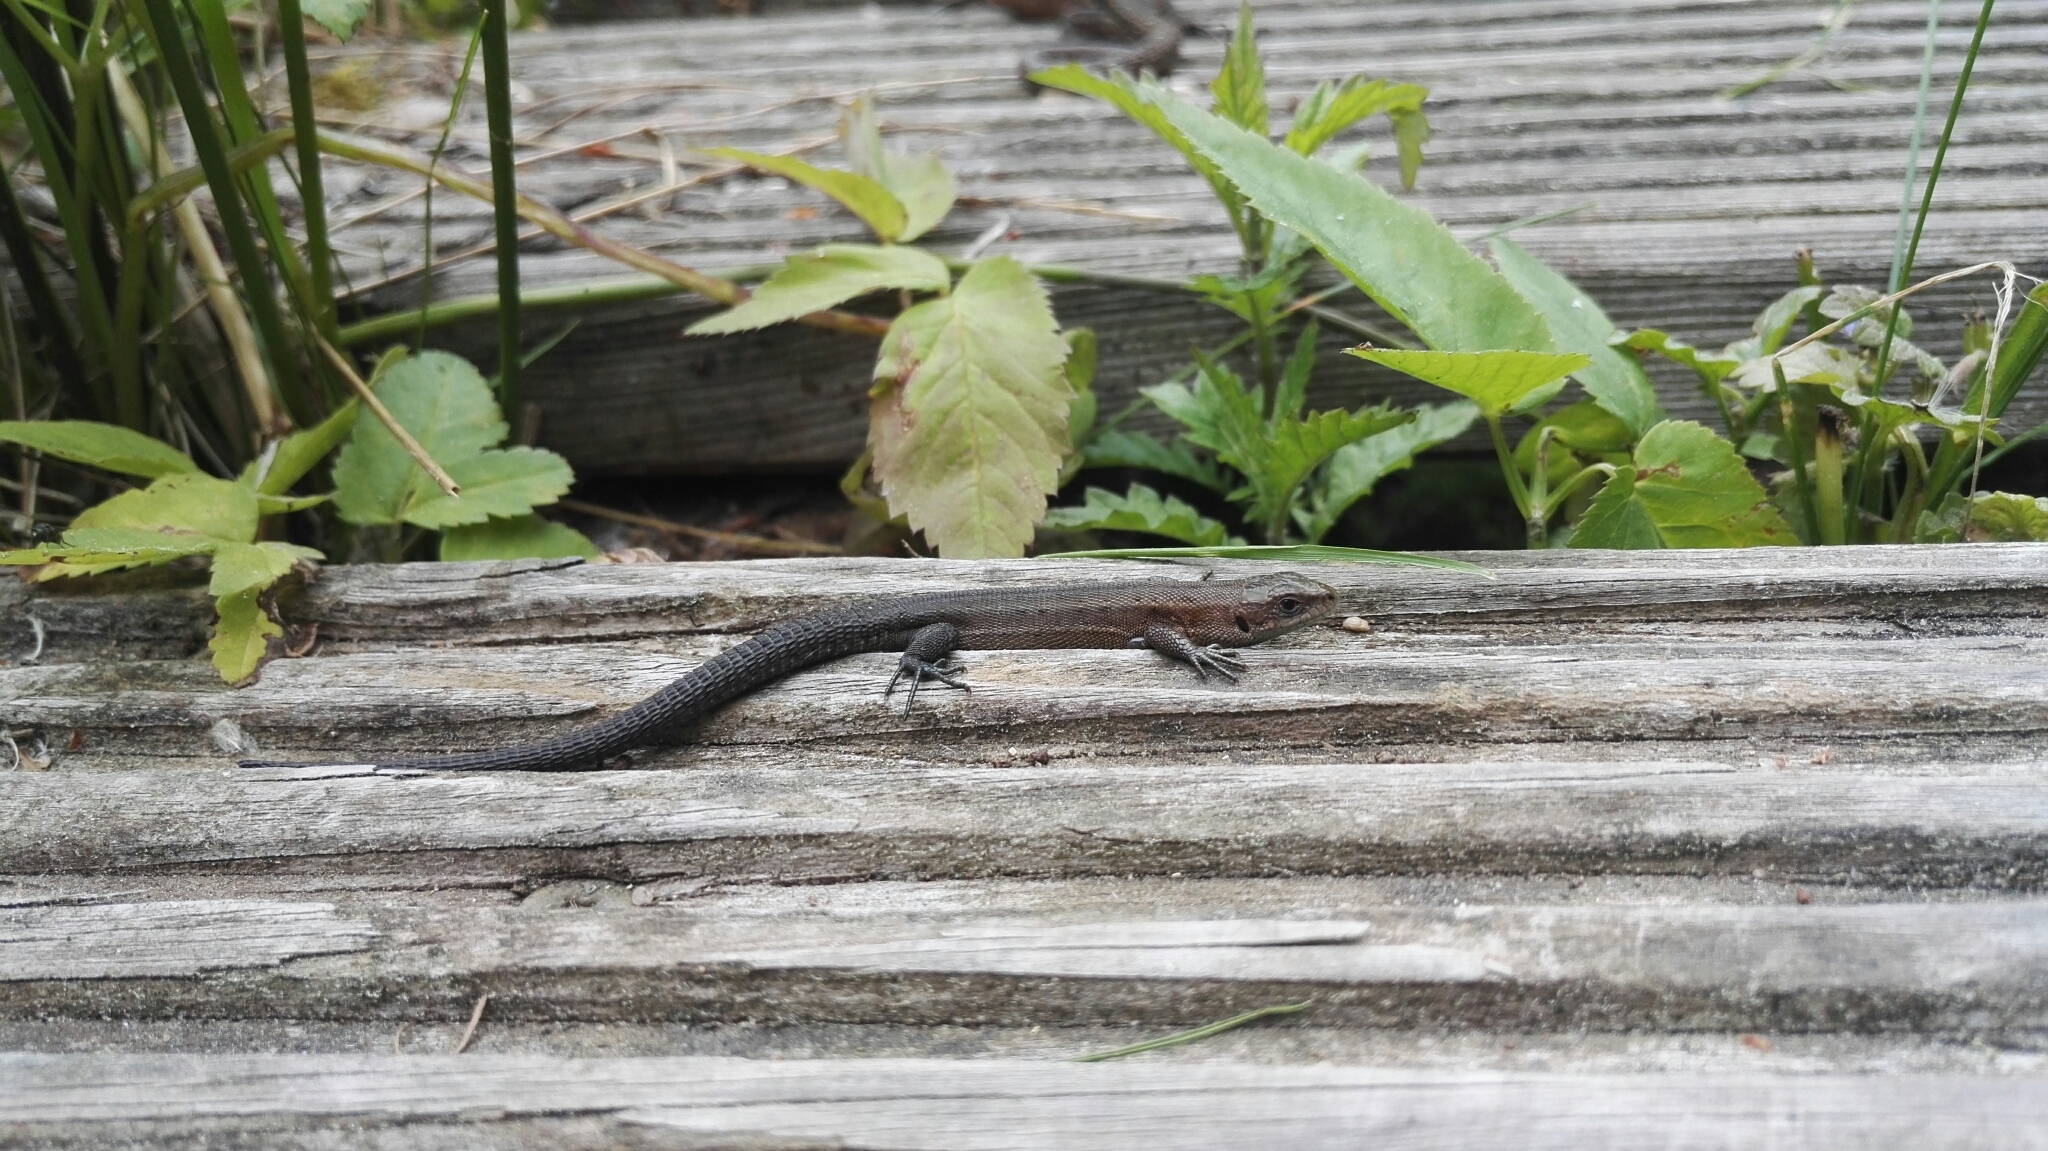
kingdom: Animalia
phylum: Chordata
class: Squamata
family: Lacertidae
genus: Zootoca
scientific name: Zootoca vivipara
